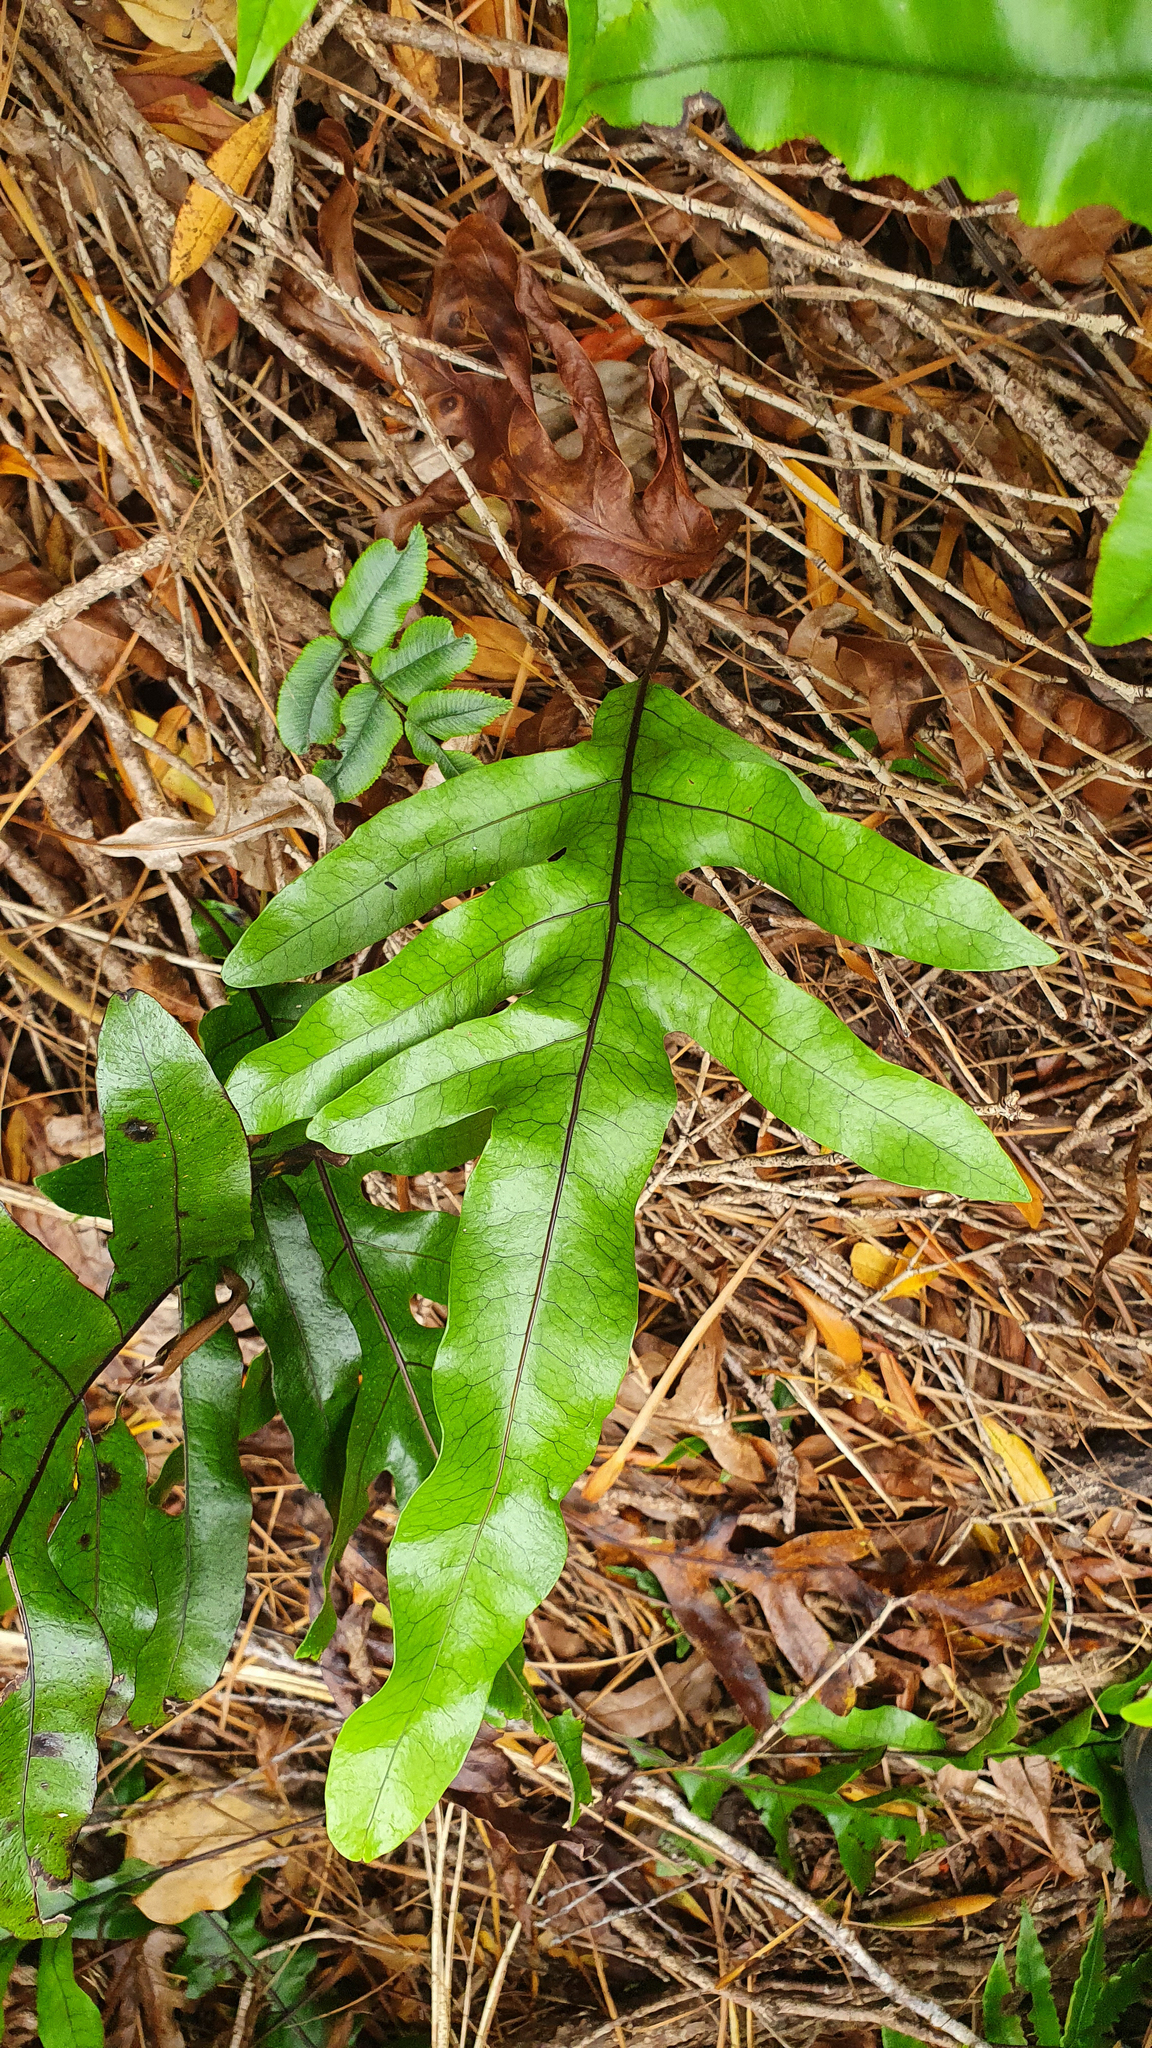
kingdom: Plantae
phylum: Tracheophyta
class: Polypodiopsida
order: Polypodiales
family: Polypodiaceae
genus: Lecanopteris
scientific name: Lecanopteris pustulata
